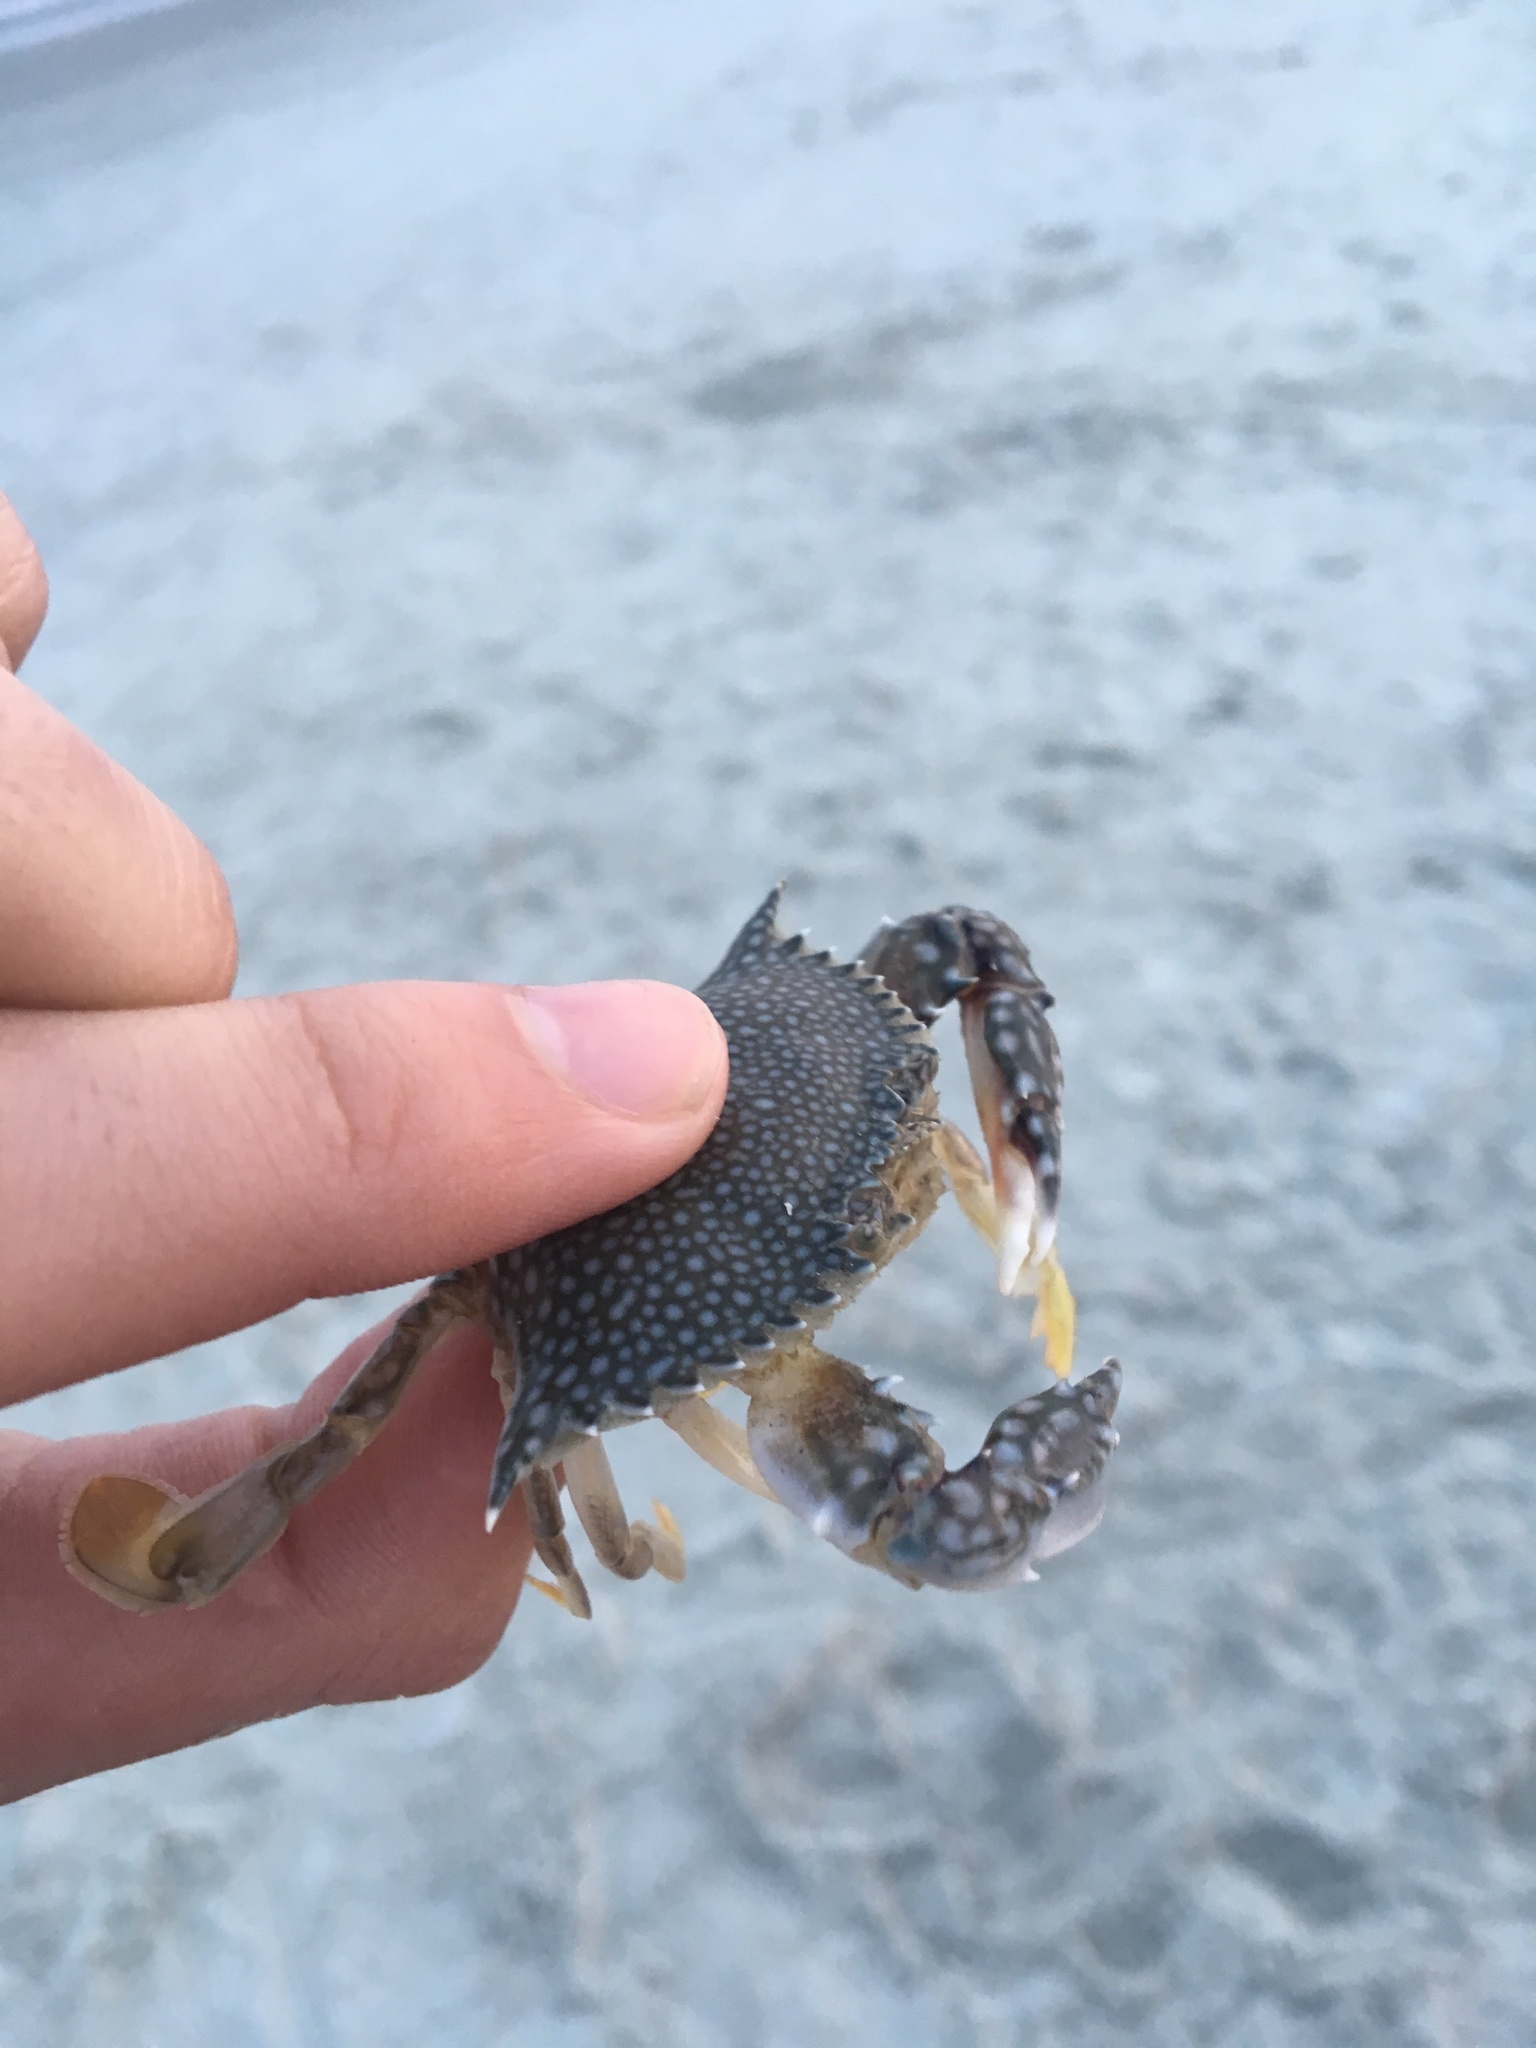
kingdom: Animalia
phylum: Arthropoda
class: Malacostraca
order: Decapoda
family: Portunidae
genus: Arenaeus
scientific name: Arenaeus cribrarius
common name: Speckled crab
